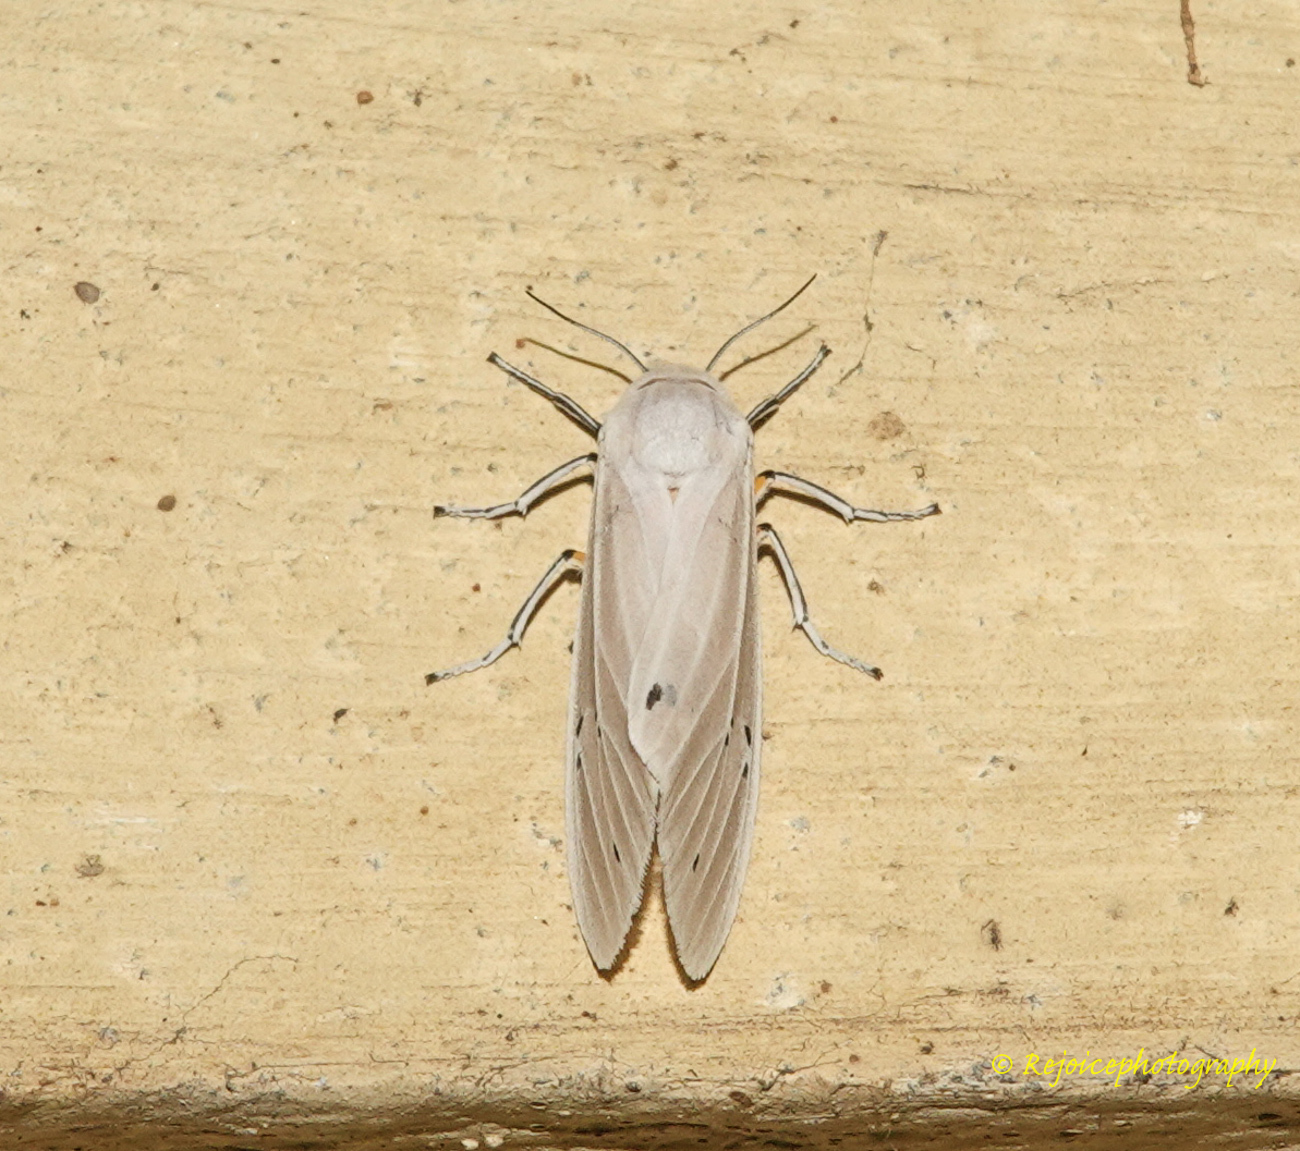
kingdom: Animalia
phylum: Arthropoda
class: Insecta
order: Lepidoptera
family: Erebidae
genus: Creatonotos
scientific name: Creatonotos transiens
